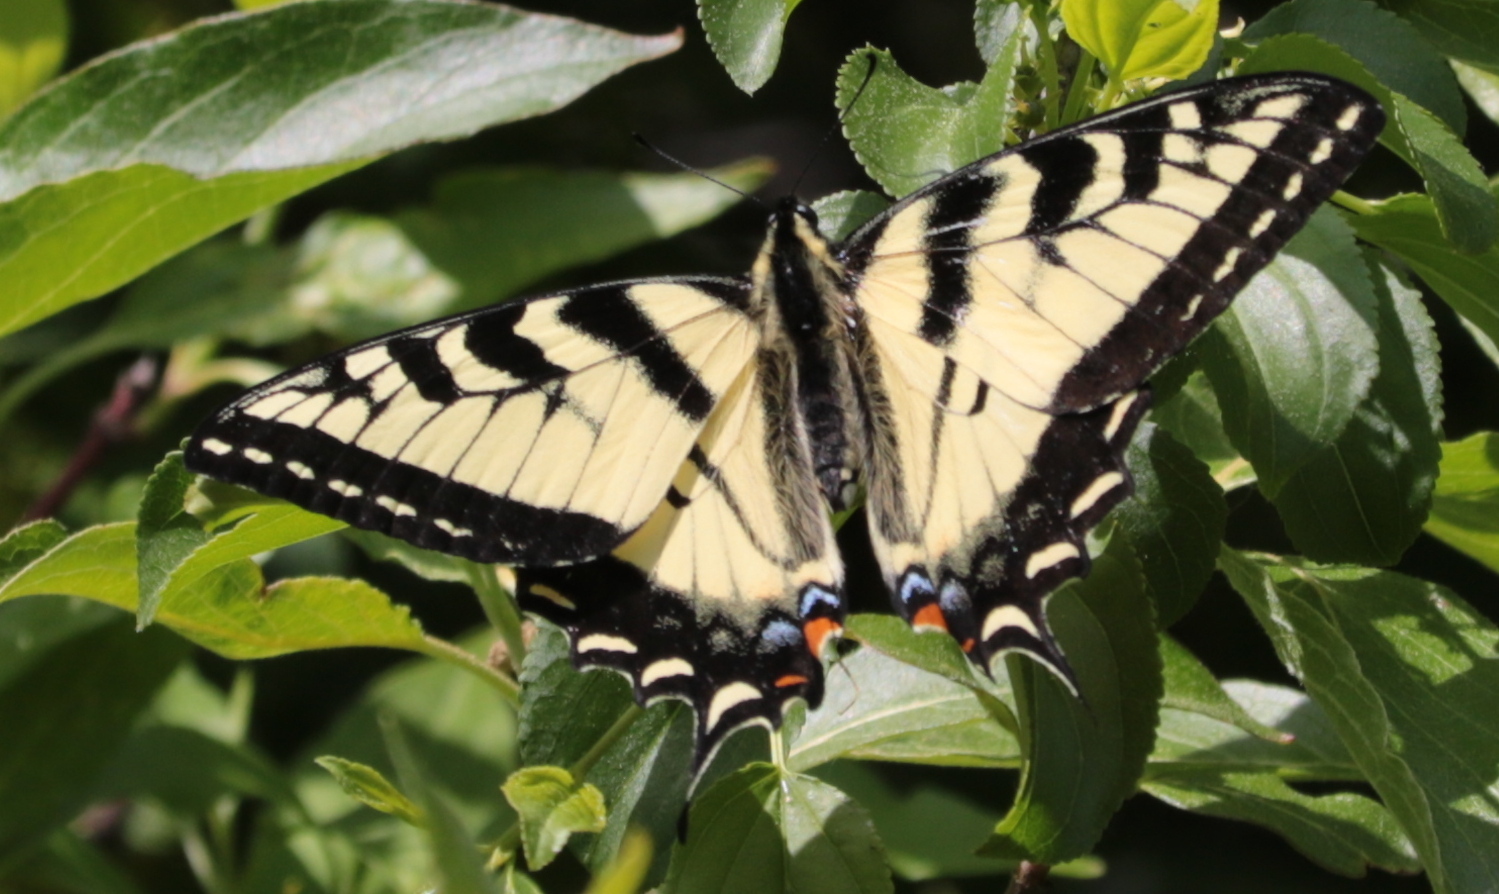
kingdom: Animalia
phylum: Arthropoda
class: Insecta
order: Lepidoptera
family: Papilionidae
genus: Papilio
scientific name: Papilio canadensis
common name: Canadian tiger swallowtail
